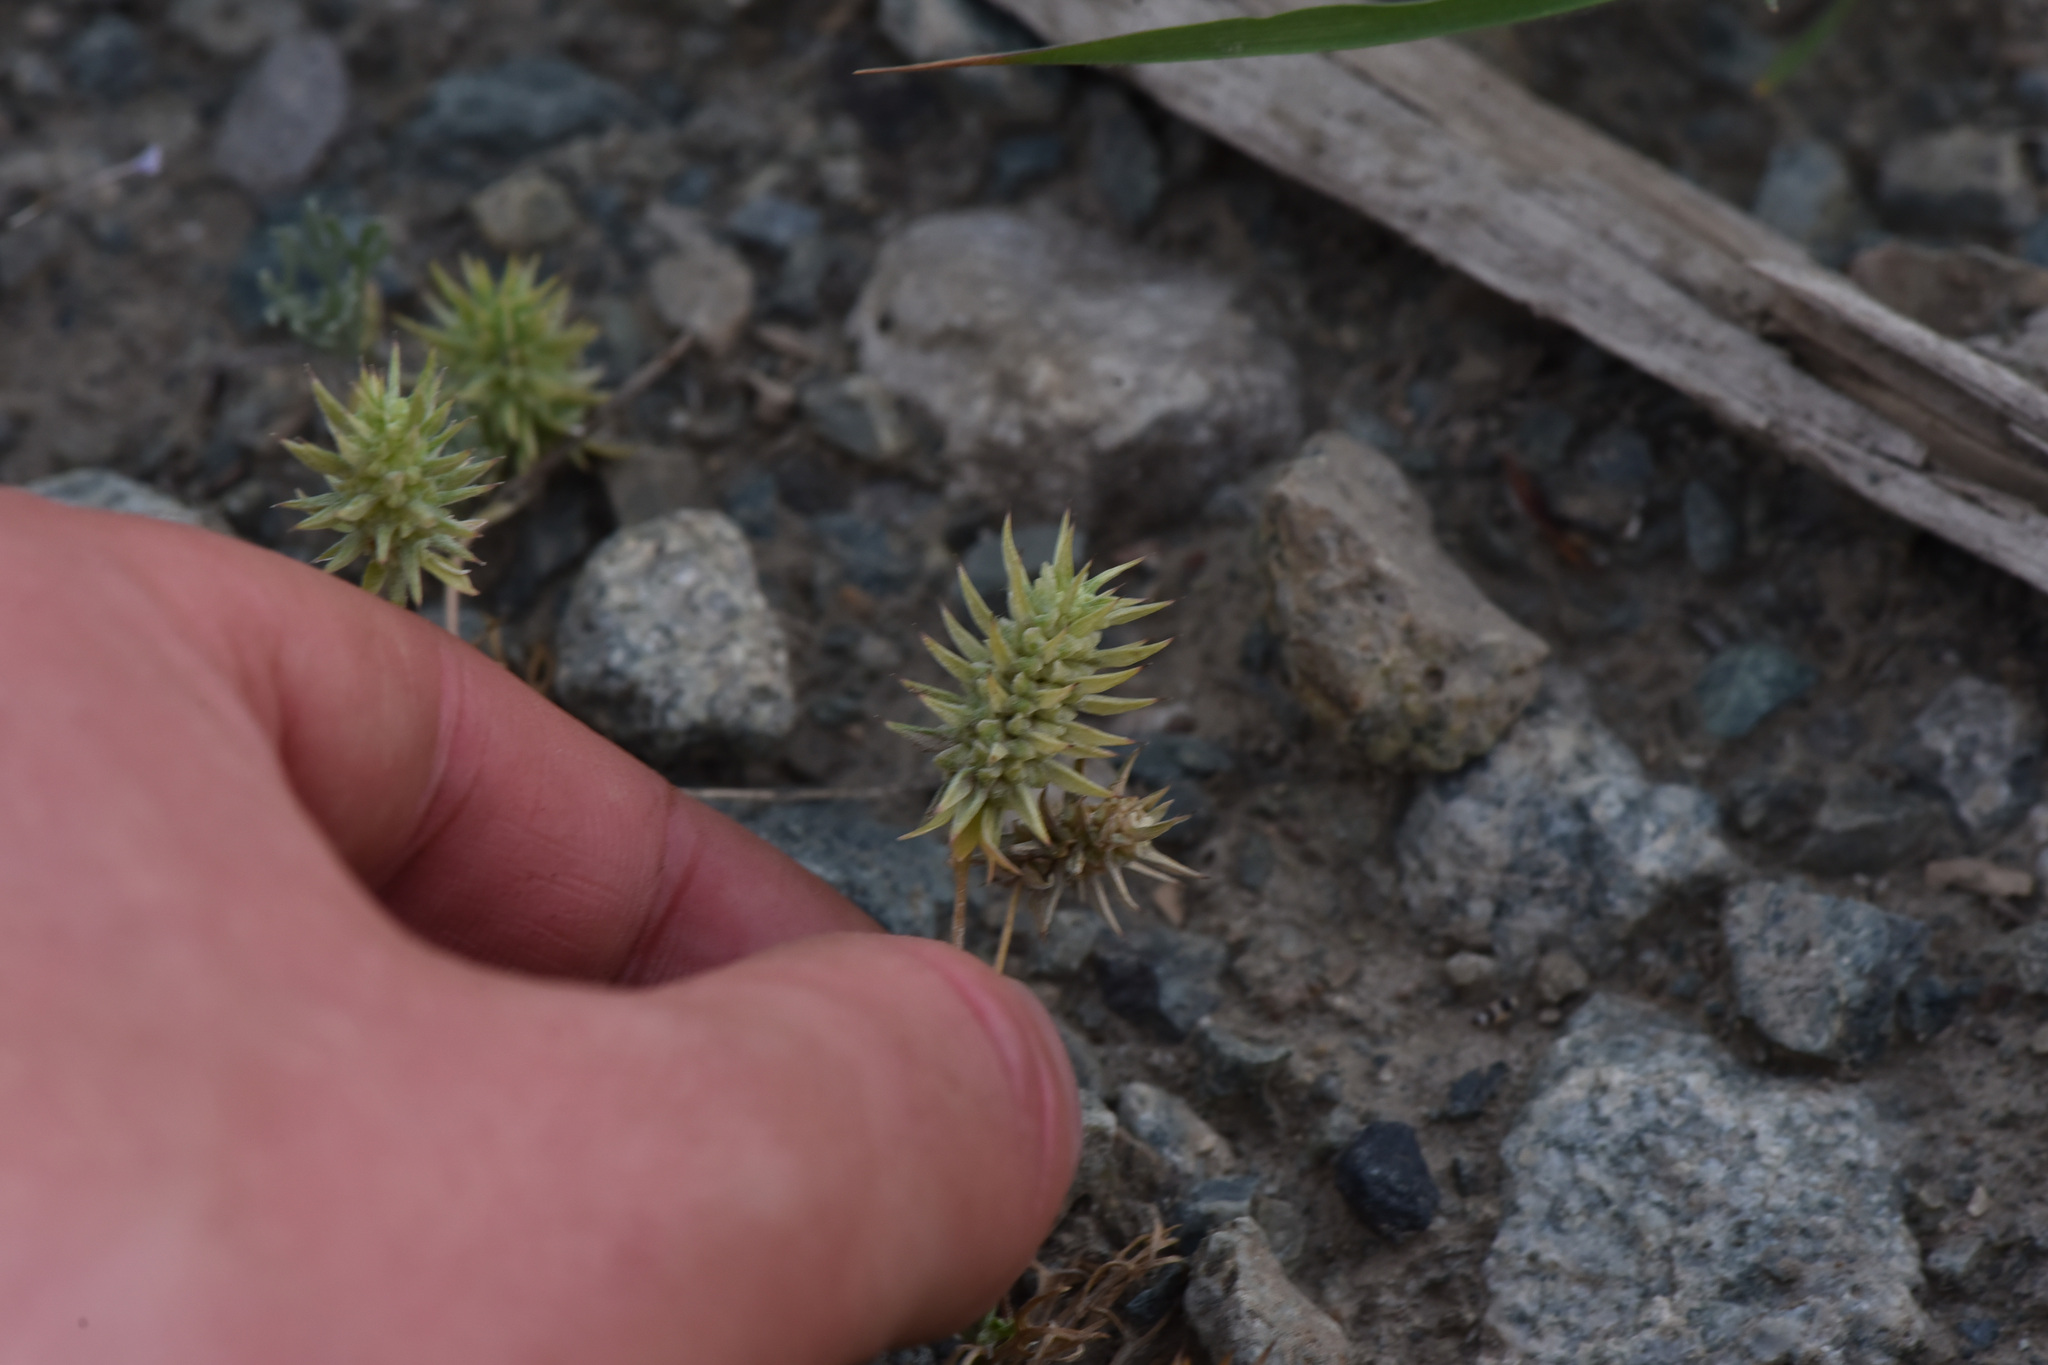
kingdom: Plantae
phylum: Tracheophyta
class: Magnoliopsida
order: Ranunculales
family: Ranunculaceae
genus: Ceratocephala
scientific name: Ceratocephala orthoceras
